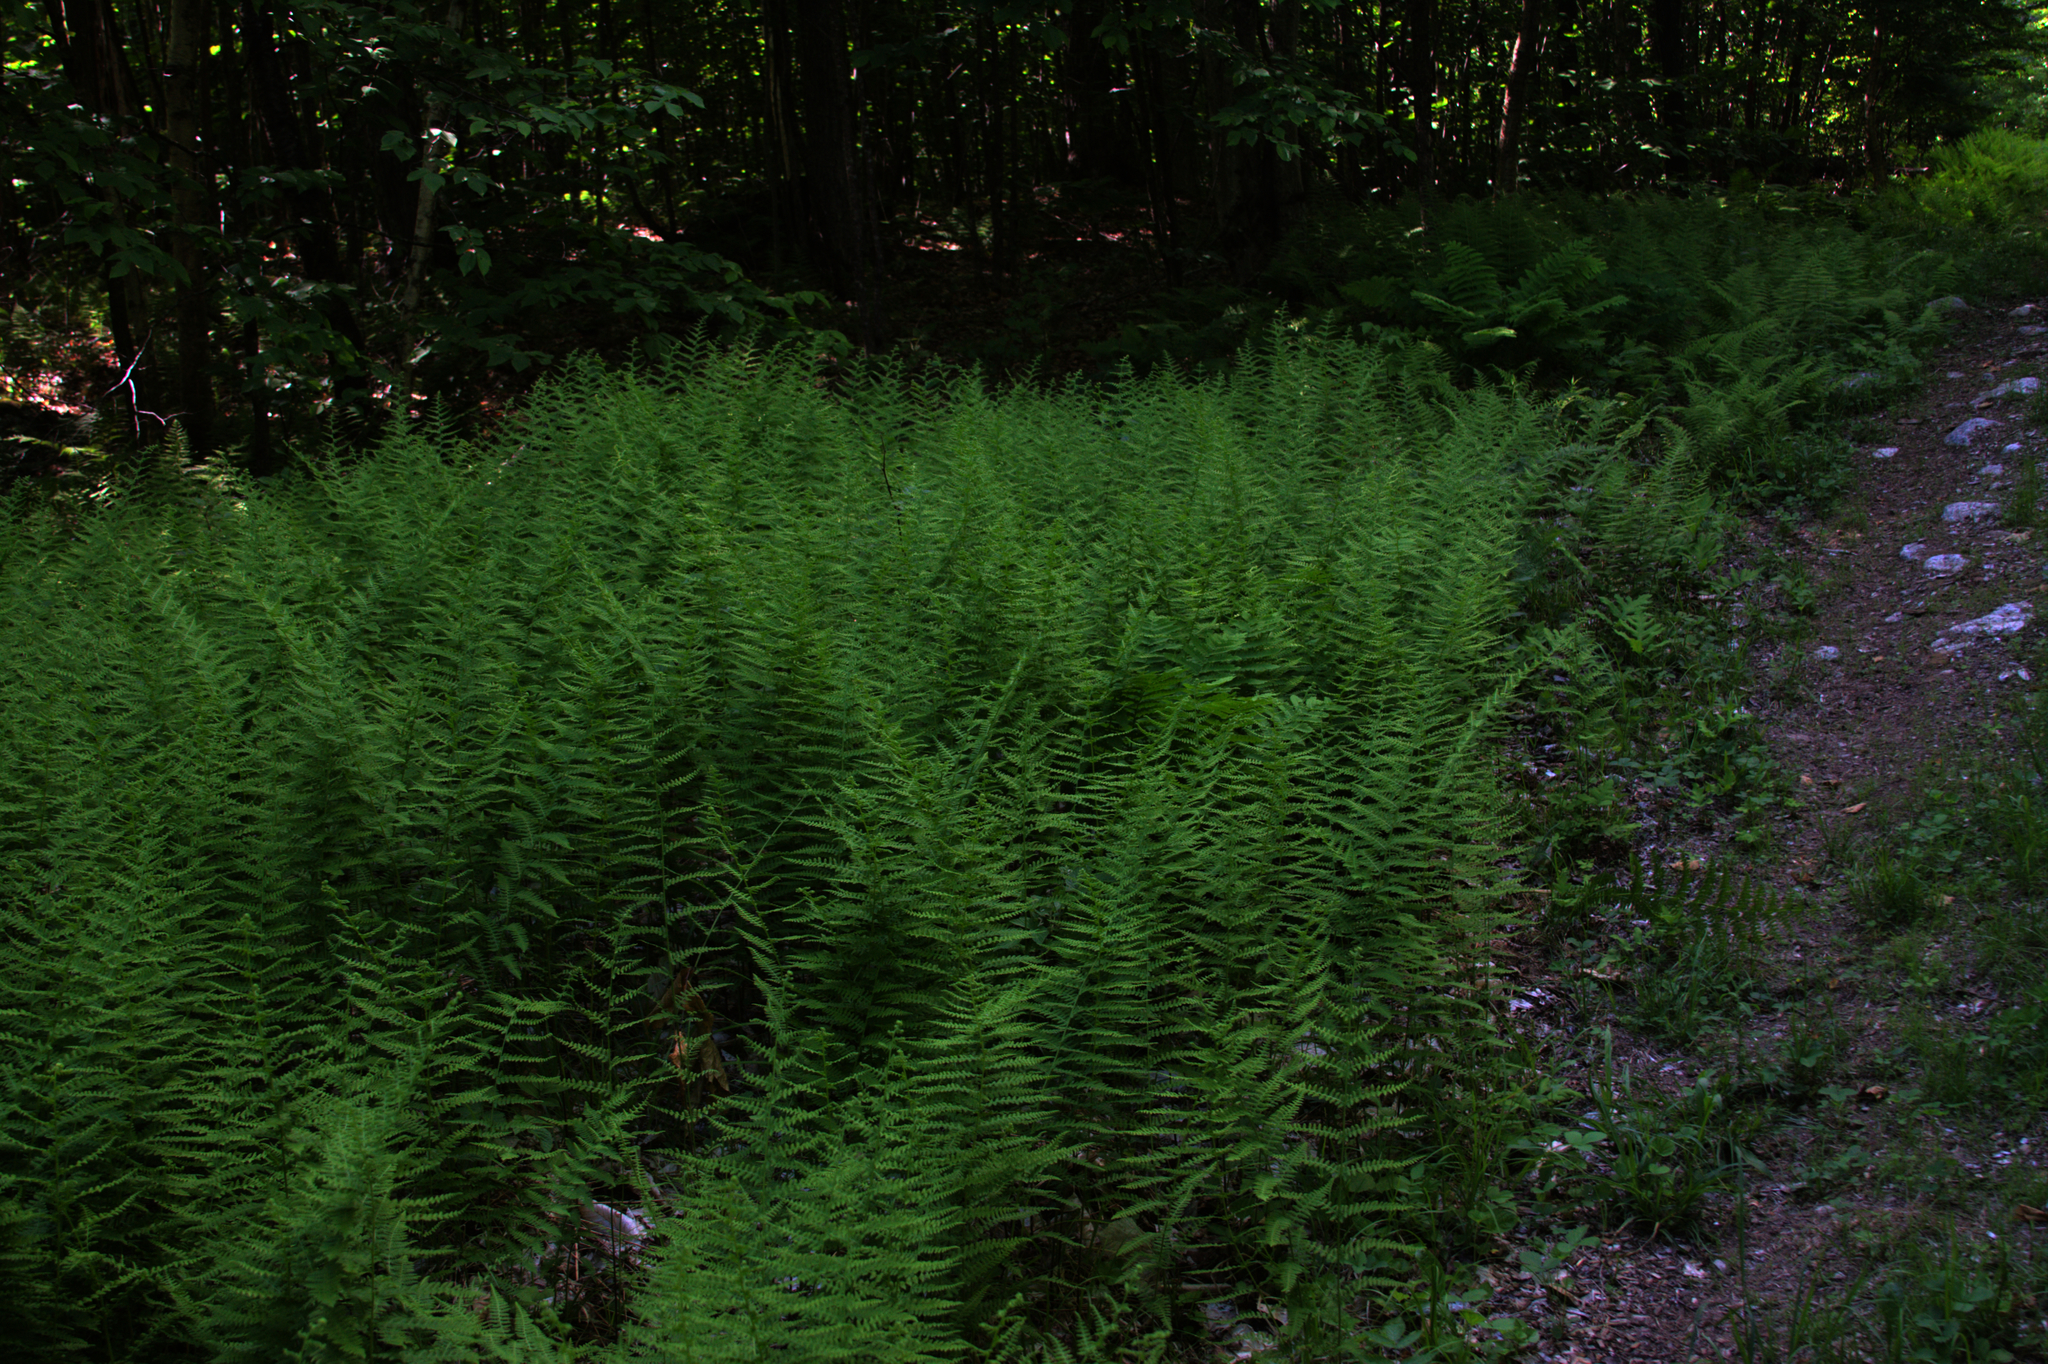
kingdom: Plantae
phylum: Tracheophyta
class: Polypodiopsida
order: Polypodiales
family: Dennstaedtiaceae
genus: Sitobolium
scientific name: Sitobolium punctilobum
